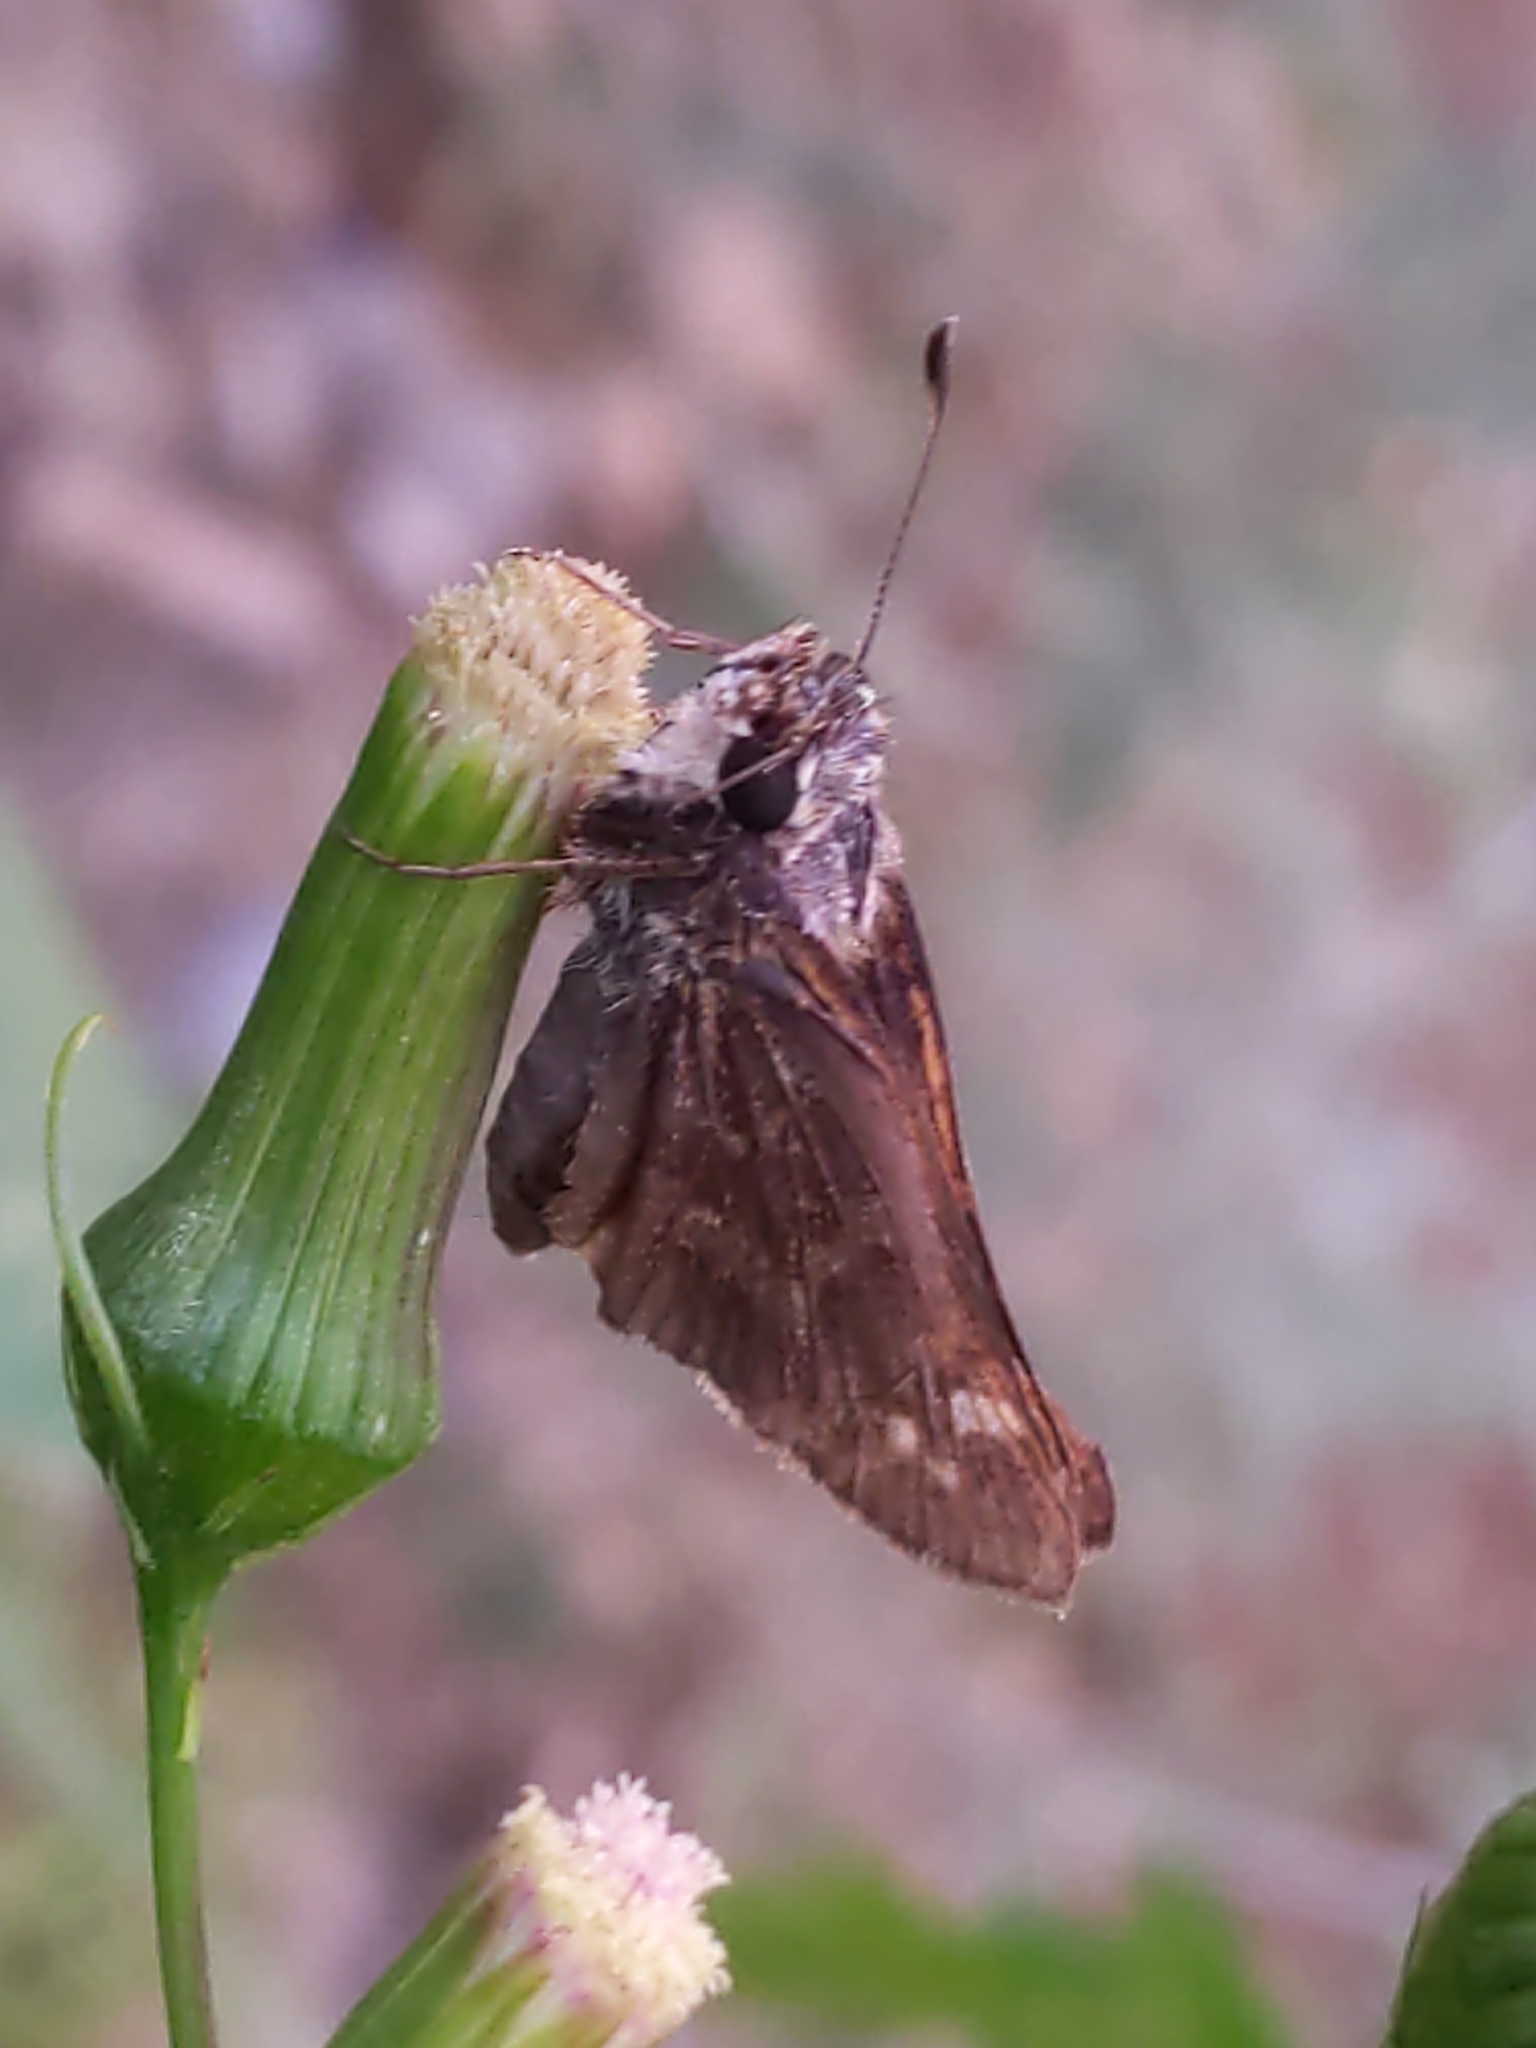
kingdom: Animalia
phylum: Arthropoda
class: Insecta
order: Lepidoptera
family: Hesperiidae
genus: Atalopedes
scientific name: Atalopedes
